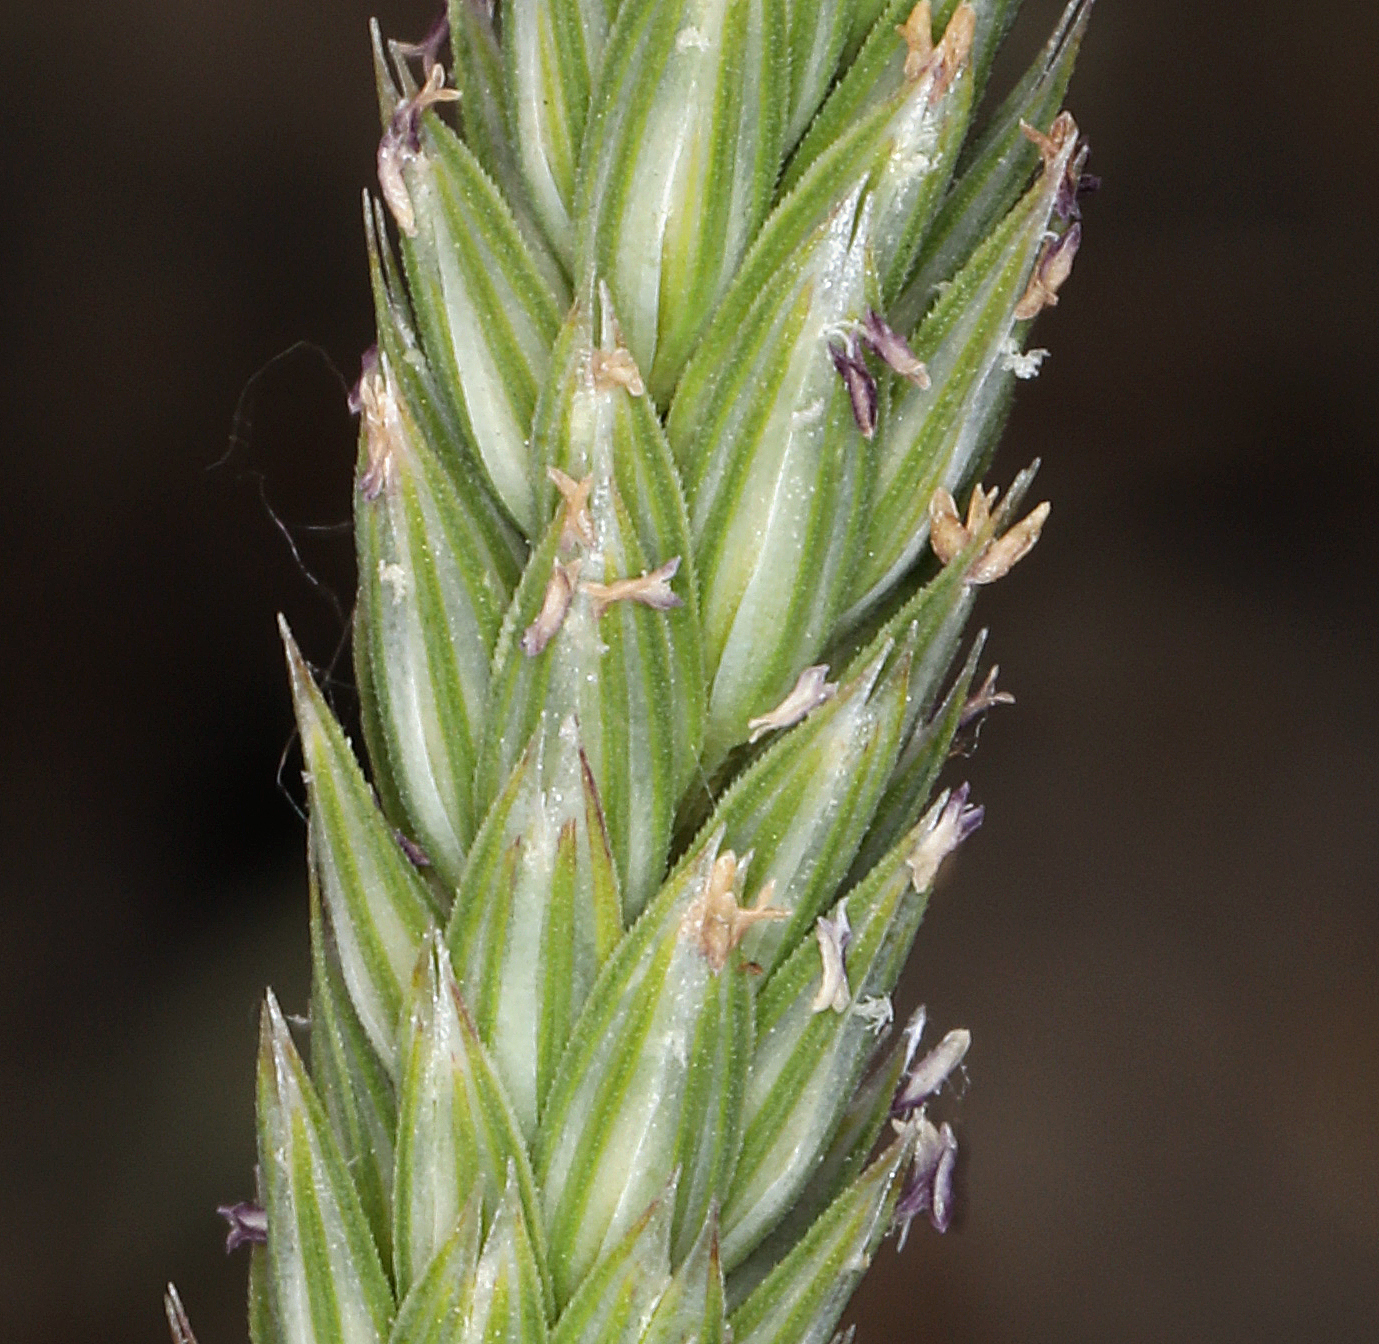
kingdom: Plantae
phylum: Tracheophyta
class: Liliopsida
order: Poales
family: Poaceae
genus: Phalaris
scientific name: Phalaris lemmonii
